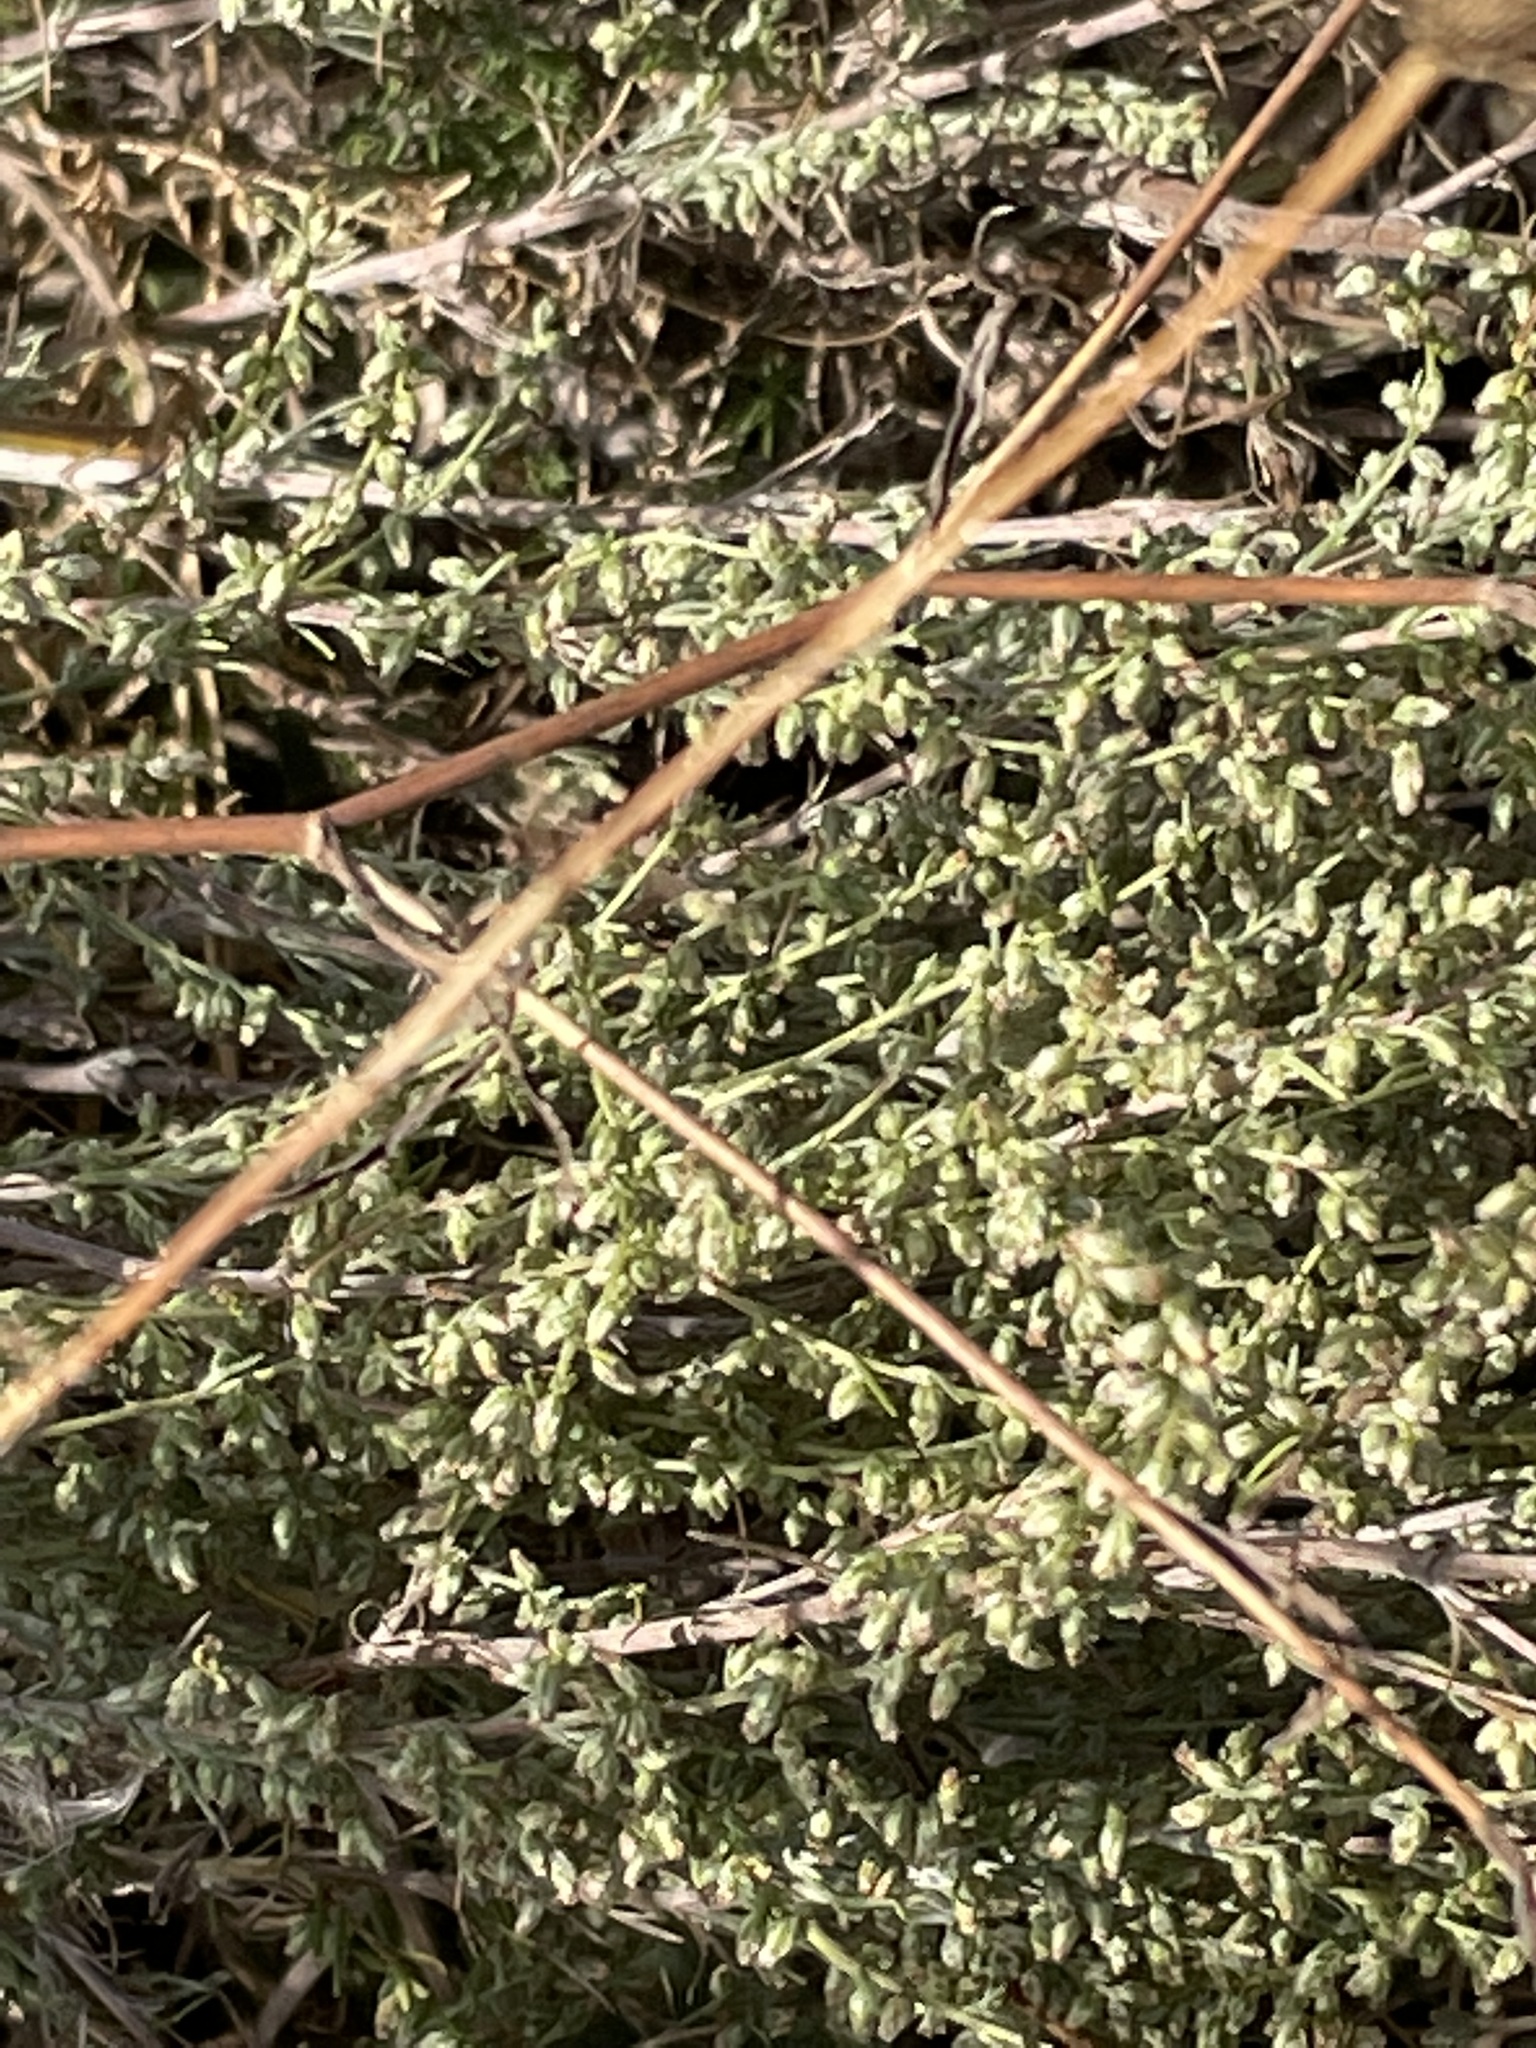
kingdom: Plantae
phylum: Tracheophyta
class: Magnoliopsida
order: Asterales
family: Asteraceae
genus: Artemisia
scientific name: Artemisia campestris
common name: Field wormwood
